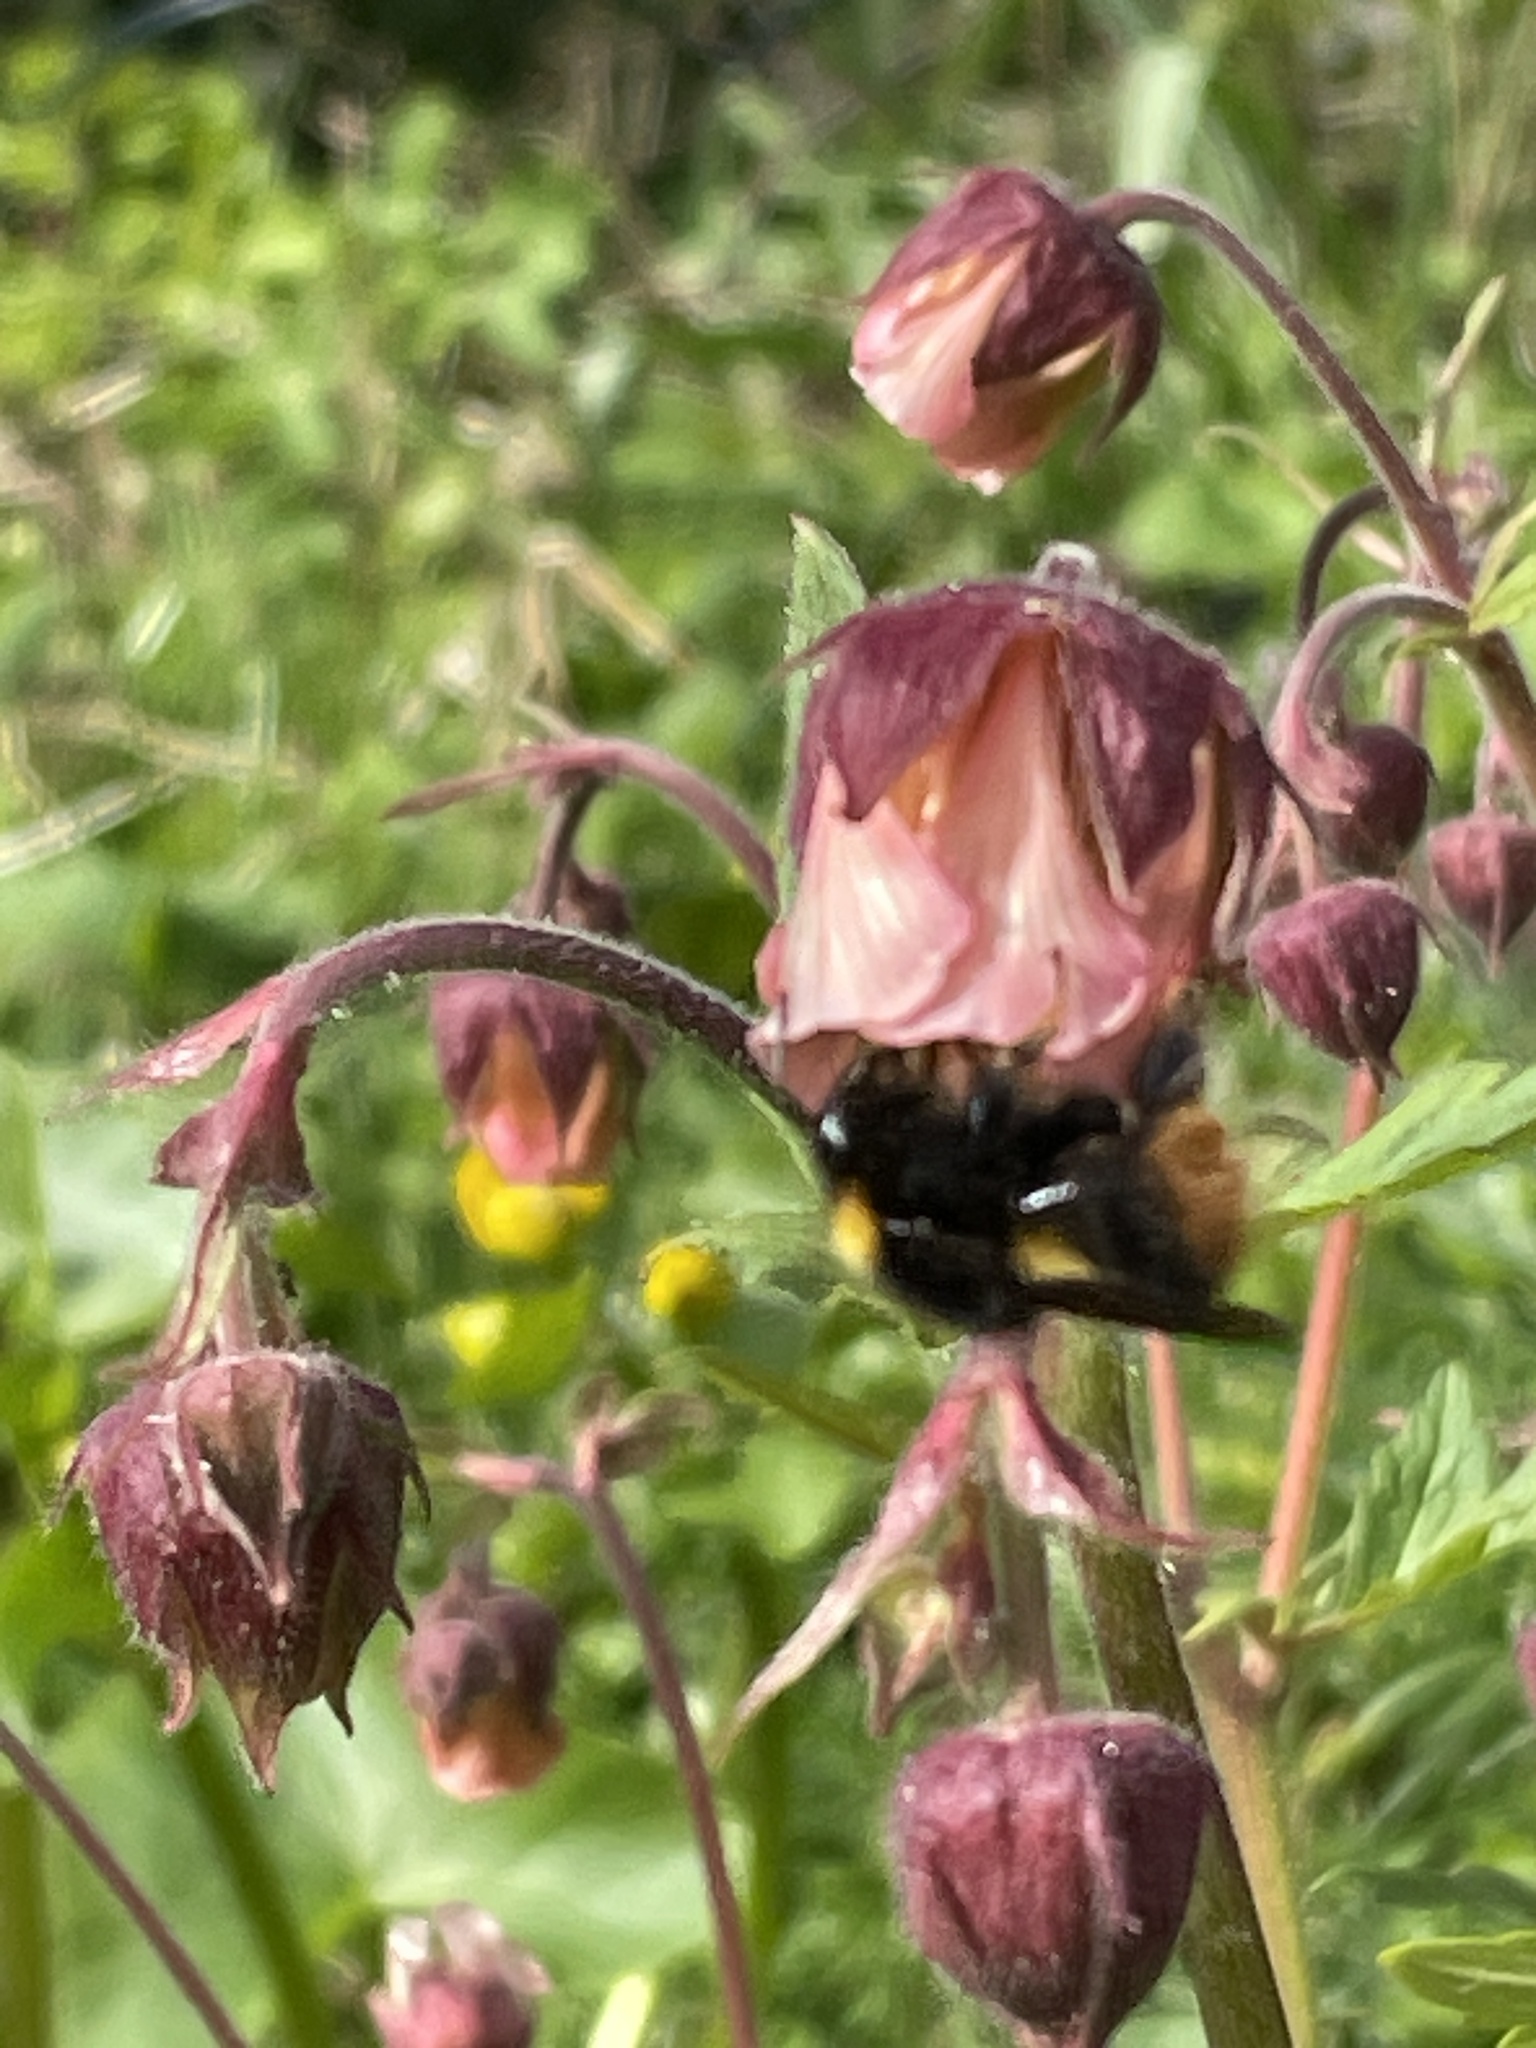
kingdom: Animalia
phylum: Arthropoda
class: Insecta
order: Hymenoptera
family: Apidae
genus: Bombus
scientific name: Bombus pratorum
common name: Early humble-bee
